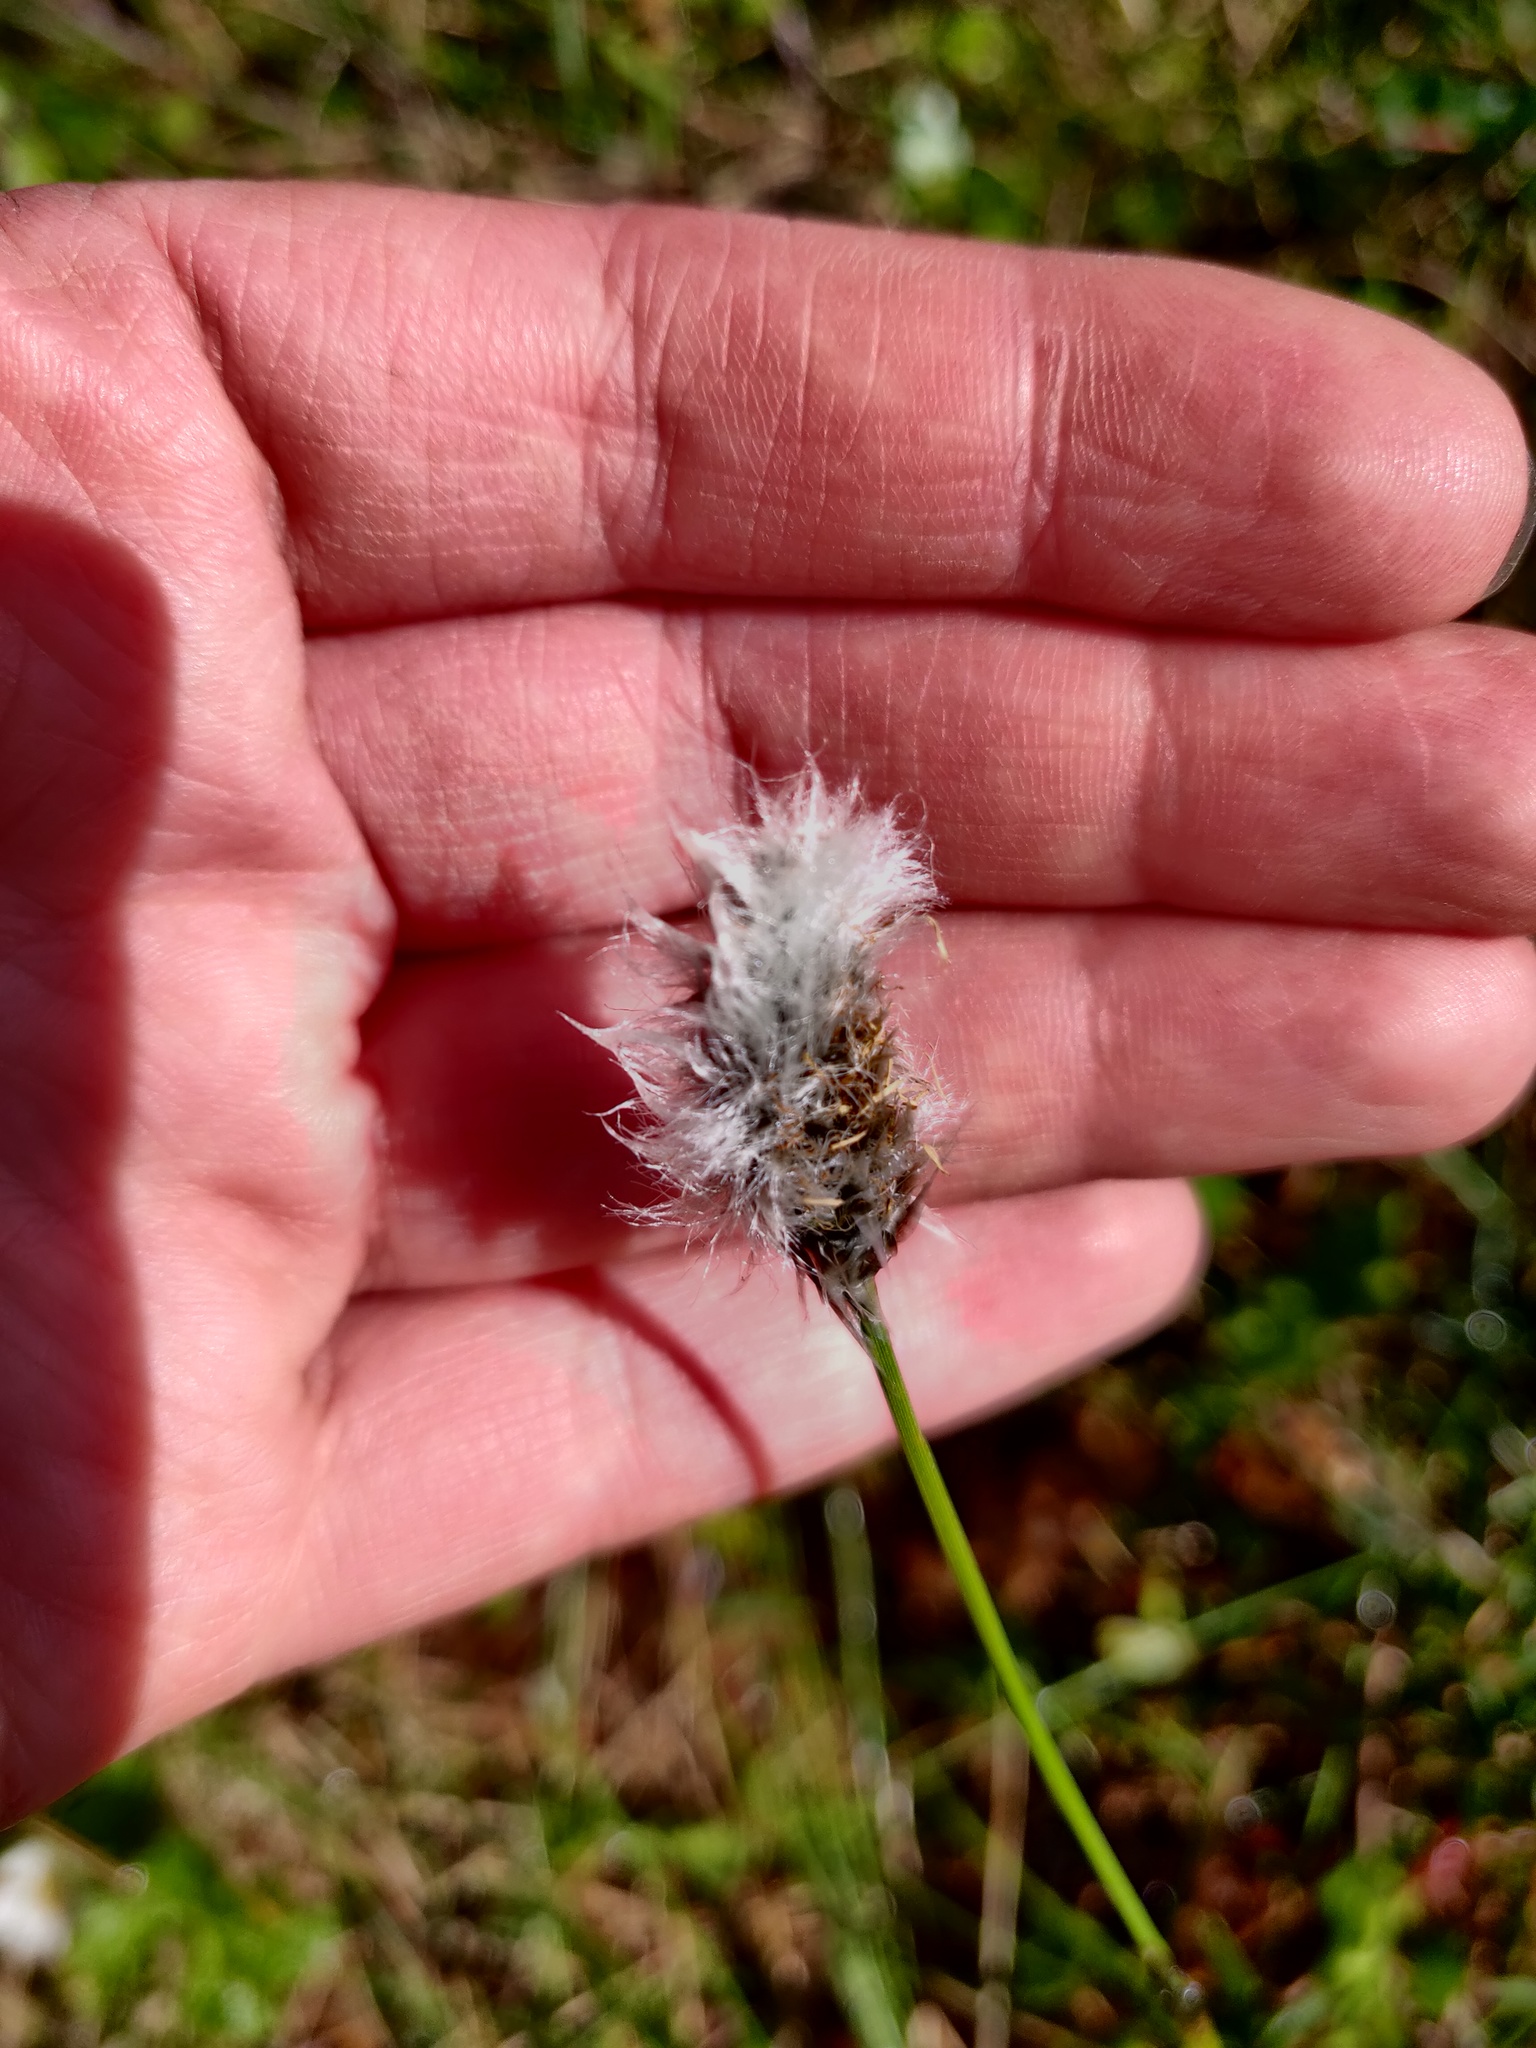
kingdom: Plantae
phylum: Tracheophyta
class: Liliopsida
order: Poales
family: Cyperaceae
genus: Eriophorum
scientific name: Eriophorum vaginatum
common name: Hare's-tail cottongrass
